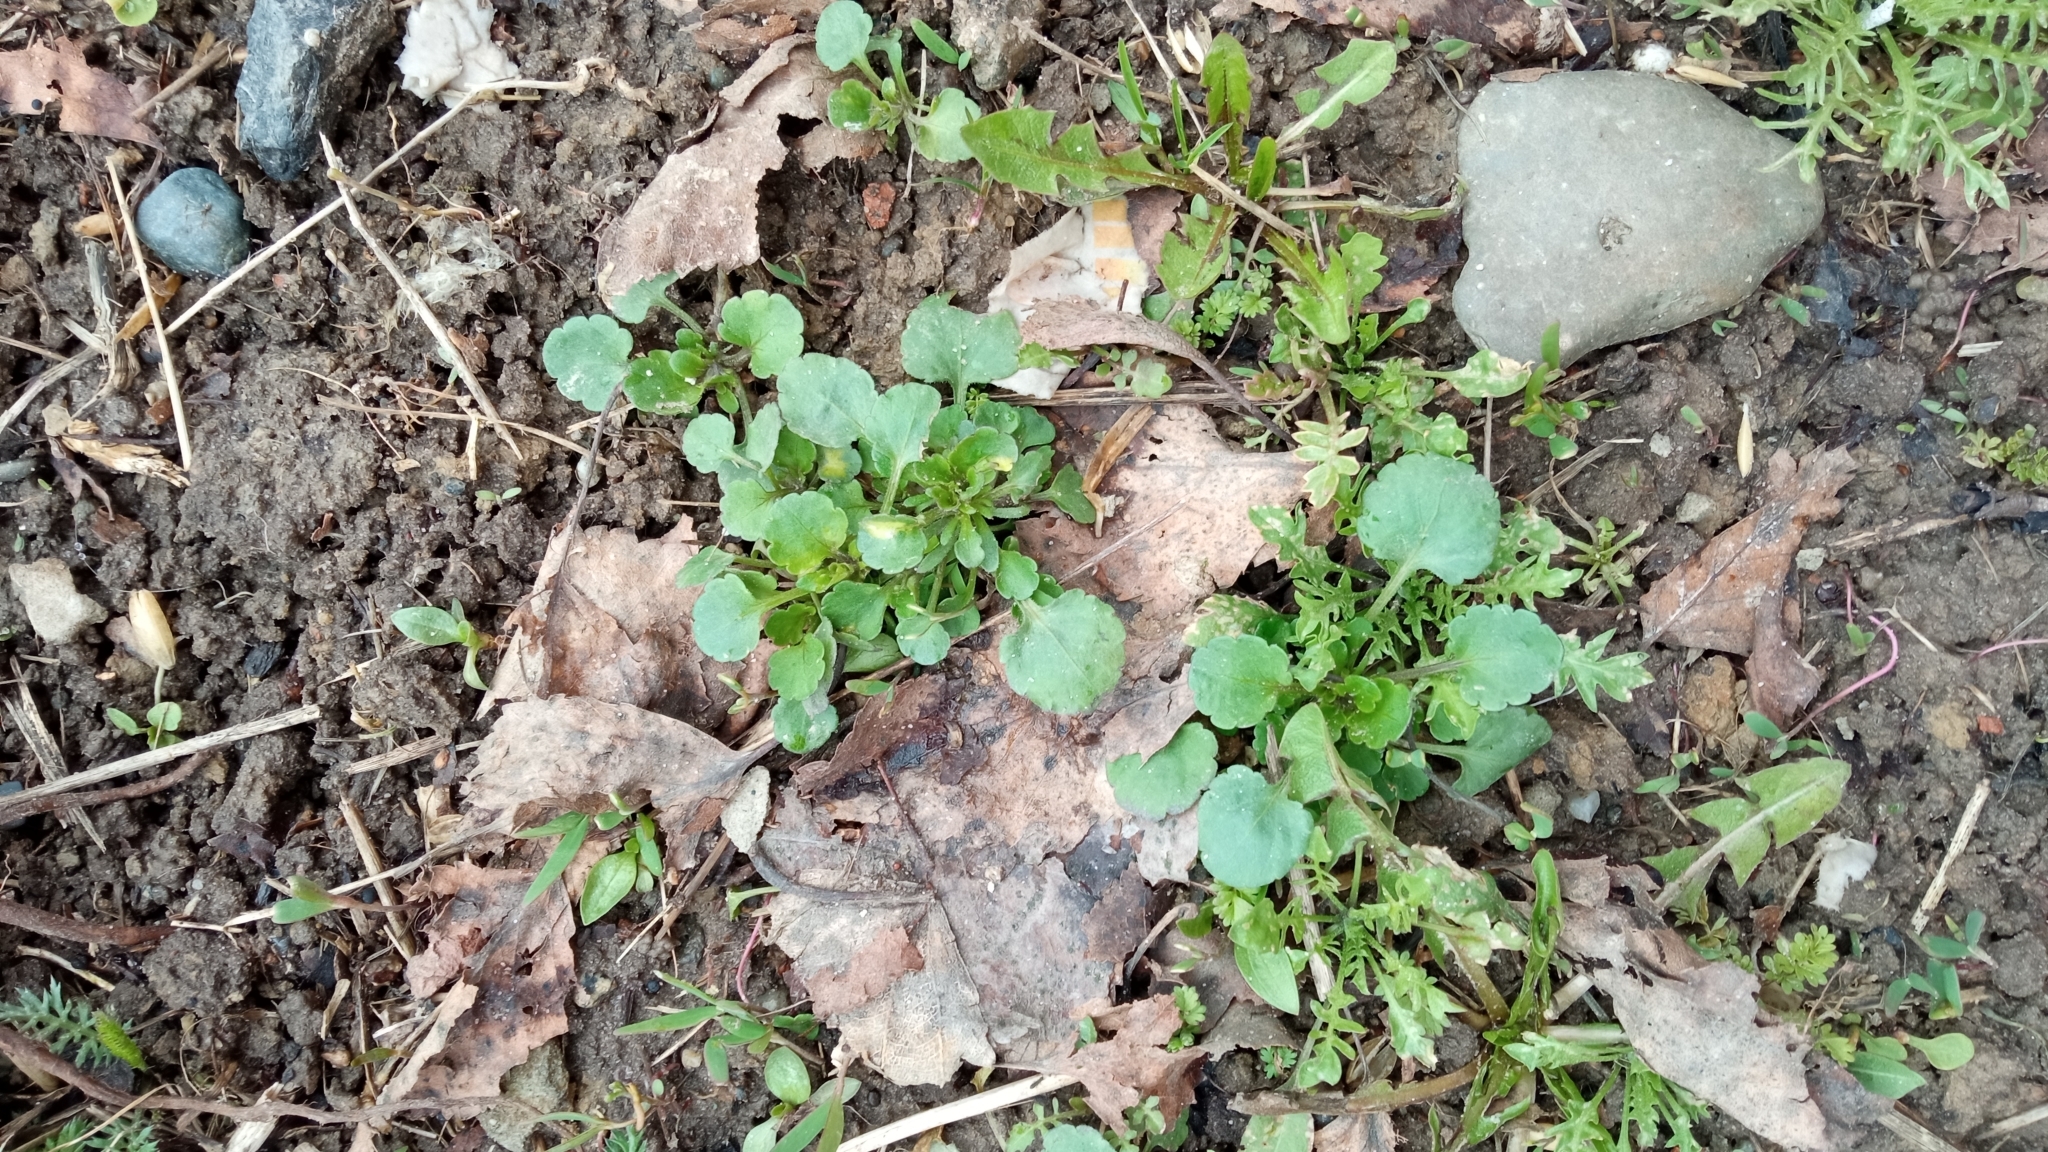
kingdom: Plantae
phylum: Tracheophyta
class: Magnoliopsida
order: Asterales
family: Asteraceae
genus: Leucanthemum
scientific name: Leucanthemum ircutianum
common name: Daisy
